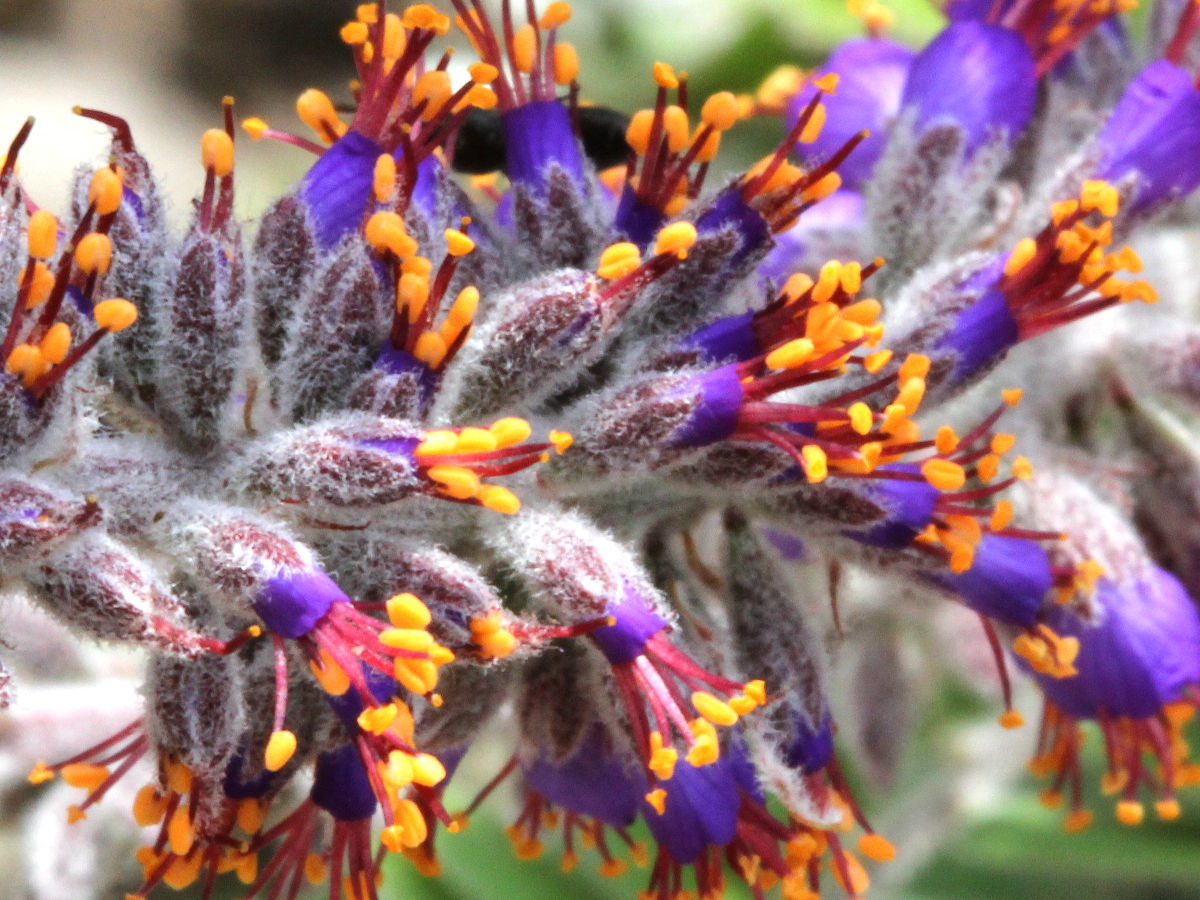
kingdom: Plantae
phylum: Tracheophyta
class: Magnoliopsida
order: Fabales
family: Fabaceae
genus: Amorpha
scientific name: Amorpha canescens
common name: Leadplant
